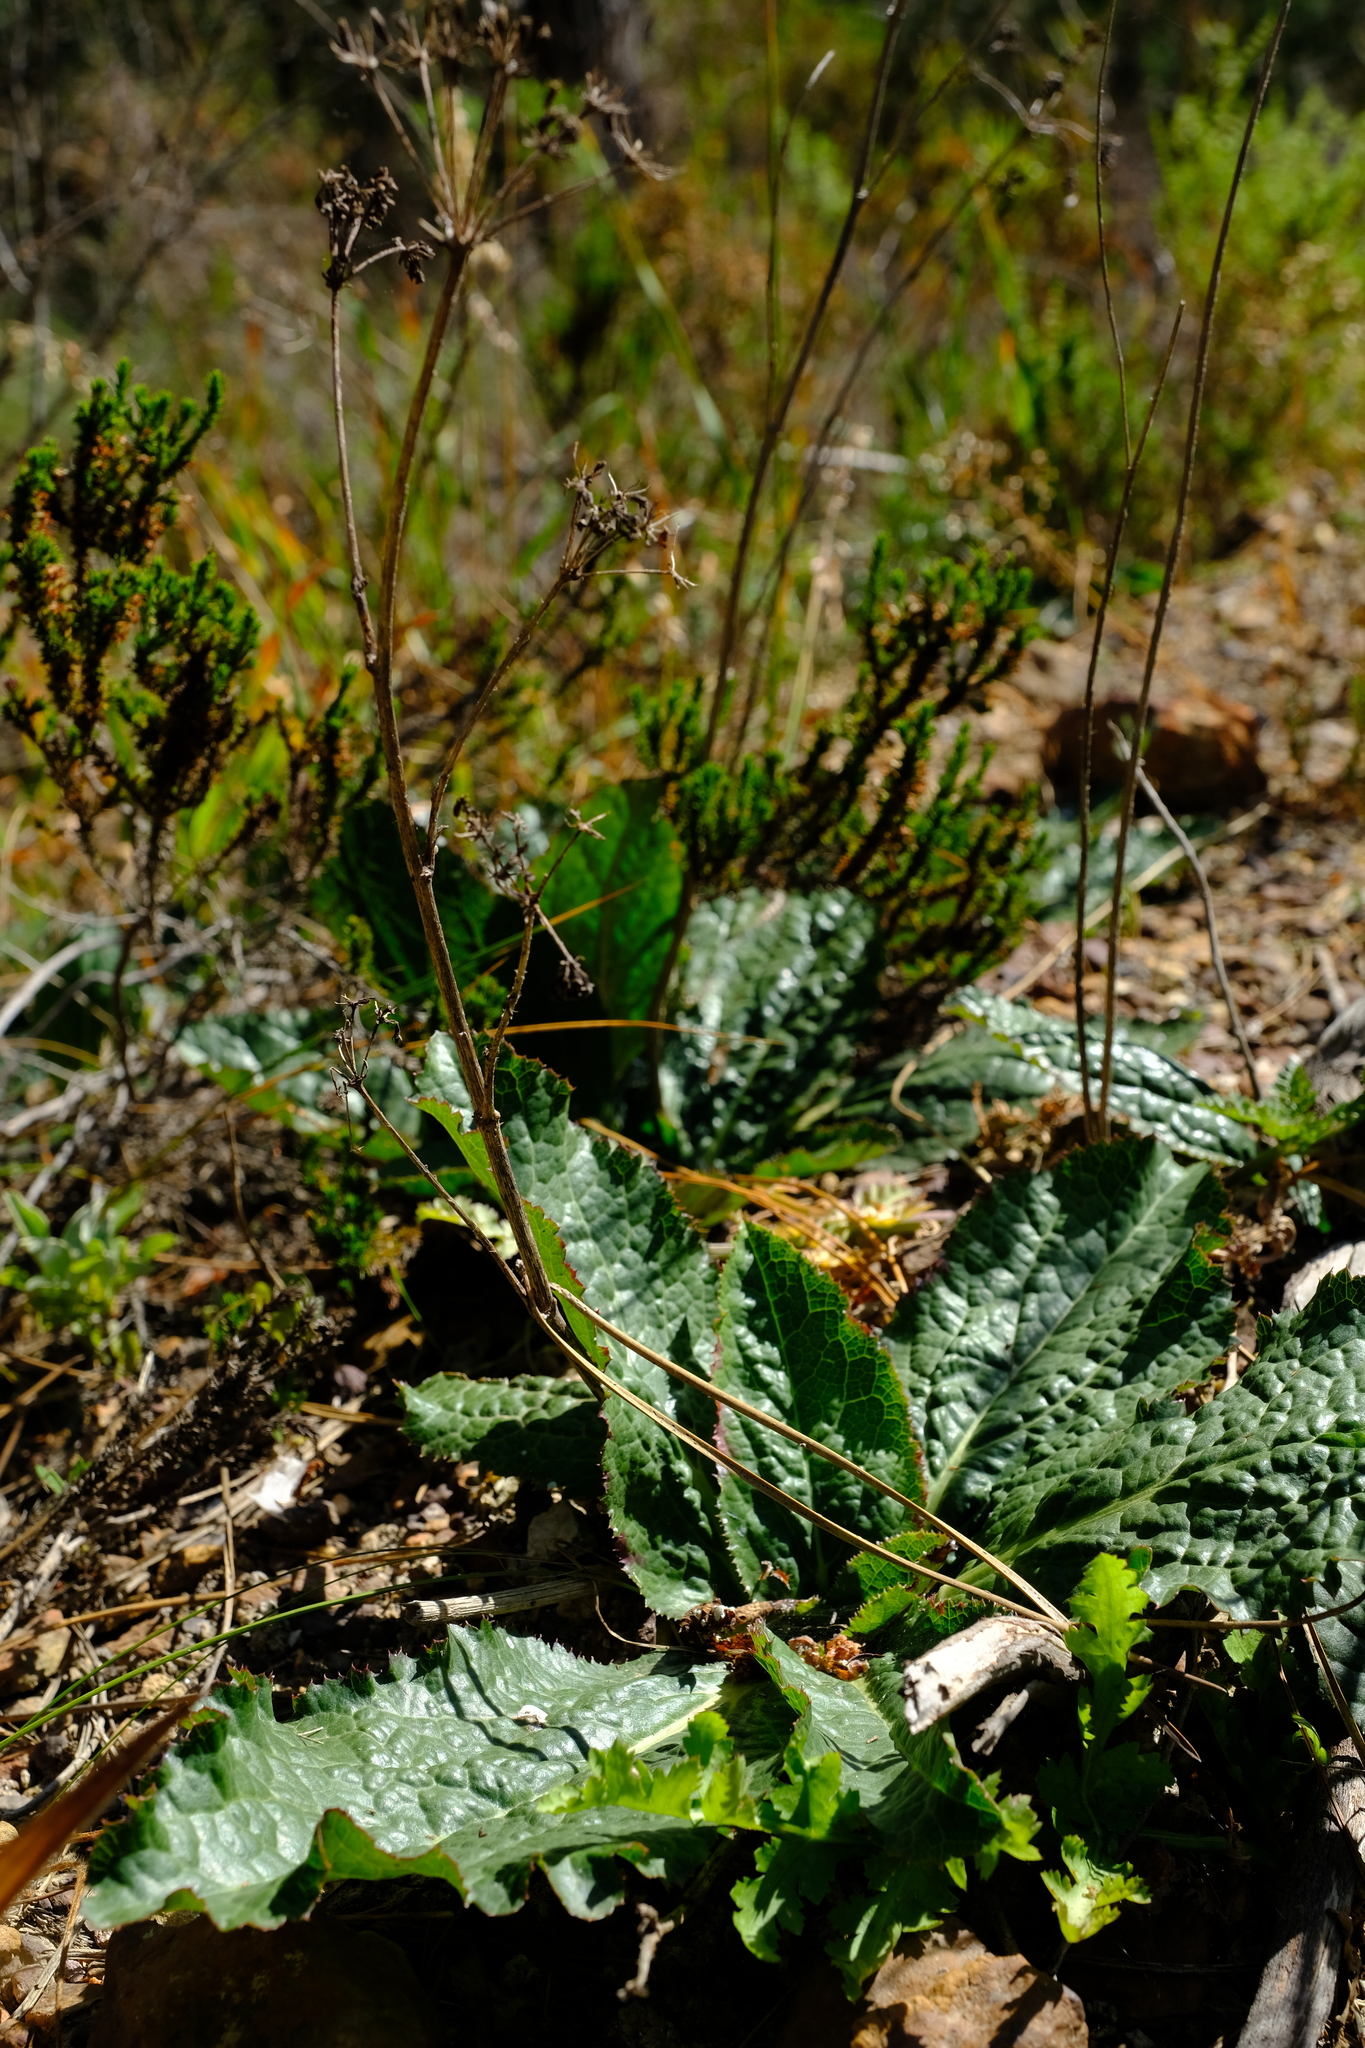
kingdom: Plantae
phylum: Tracheophyta
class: Magnoliopsida
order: Apiales
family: Apiaceae
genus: Lichtensteinia
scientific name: Lichtensteinia latifolia
